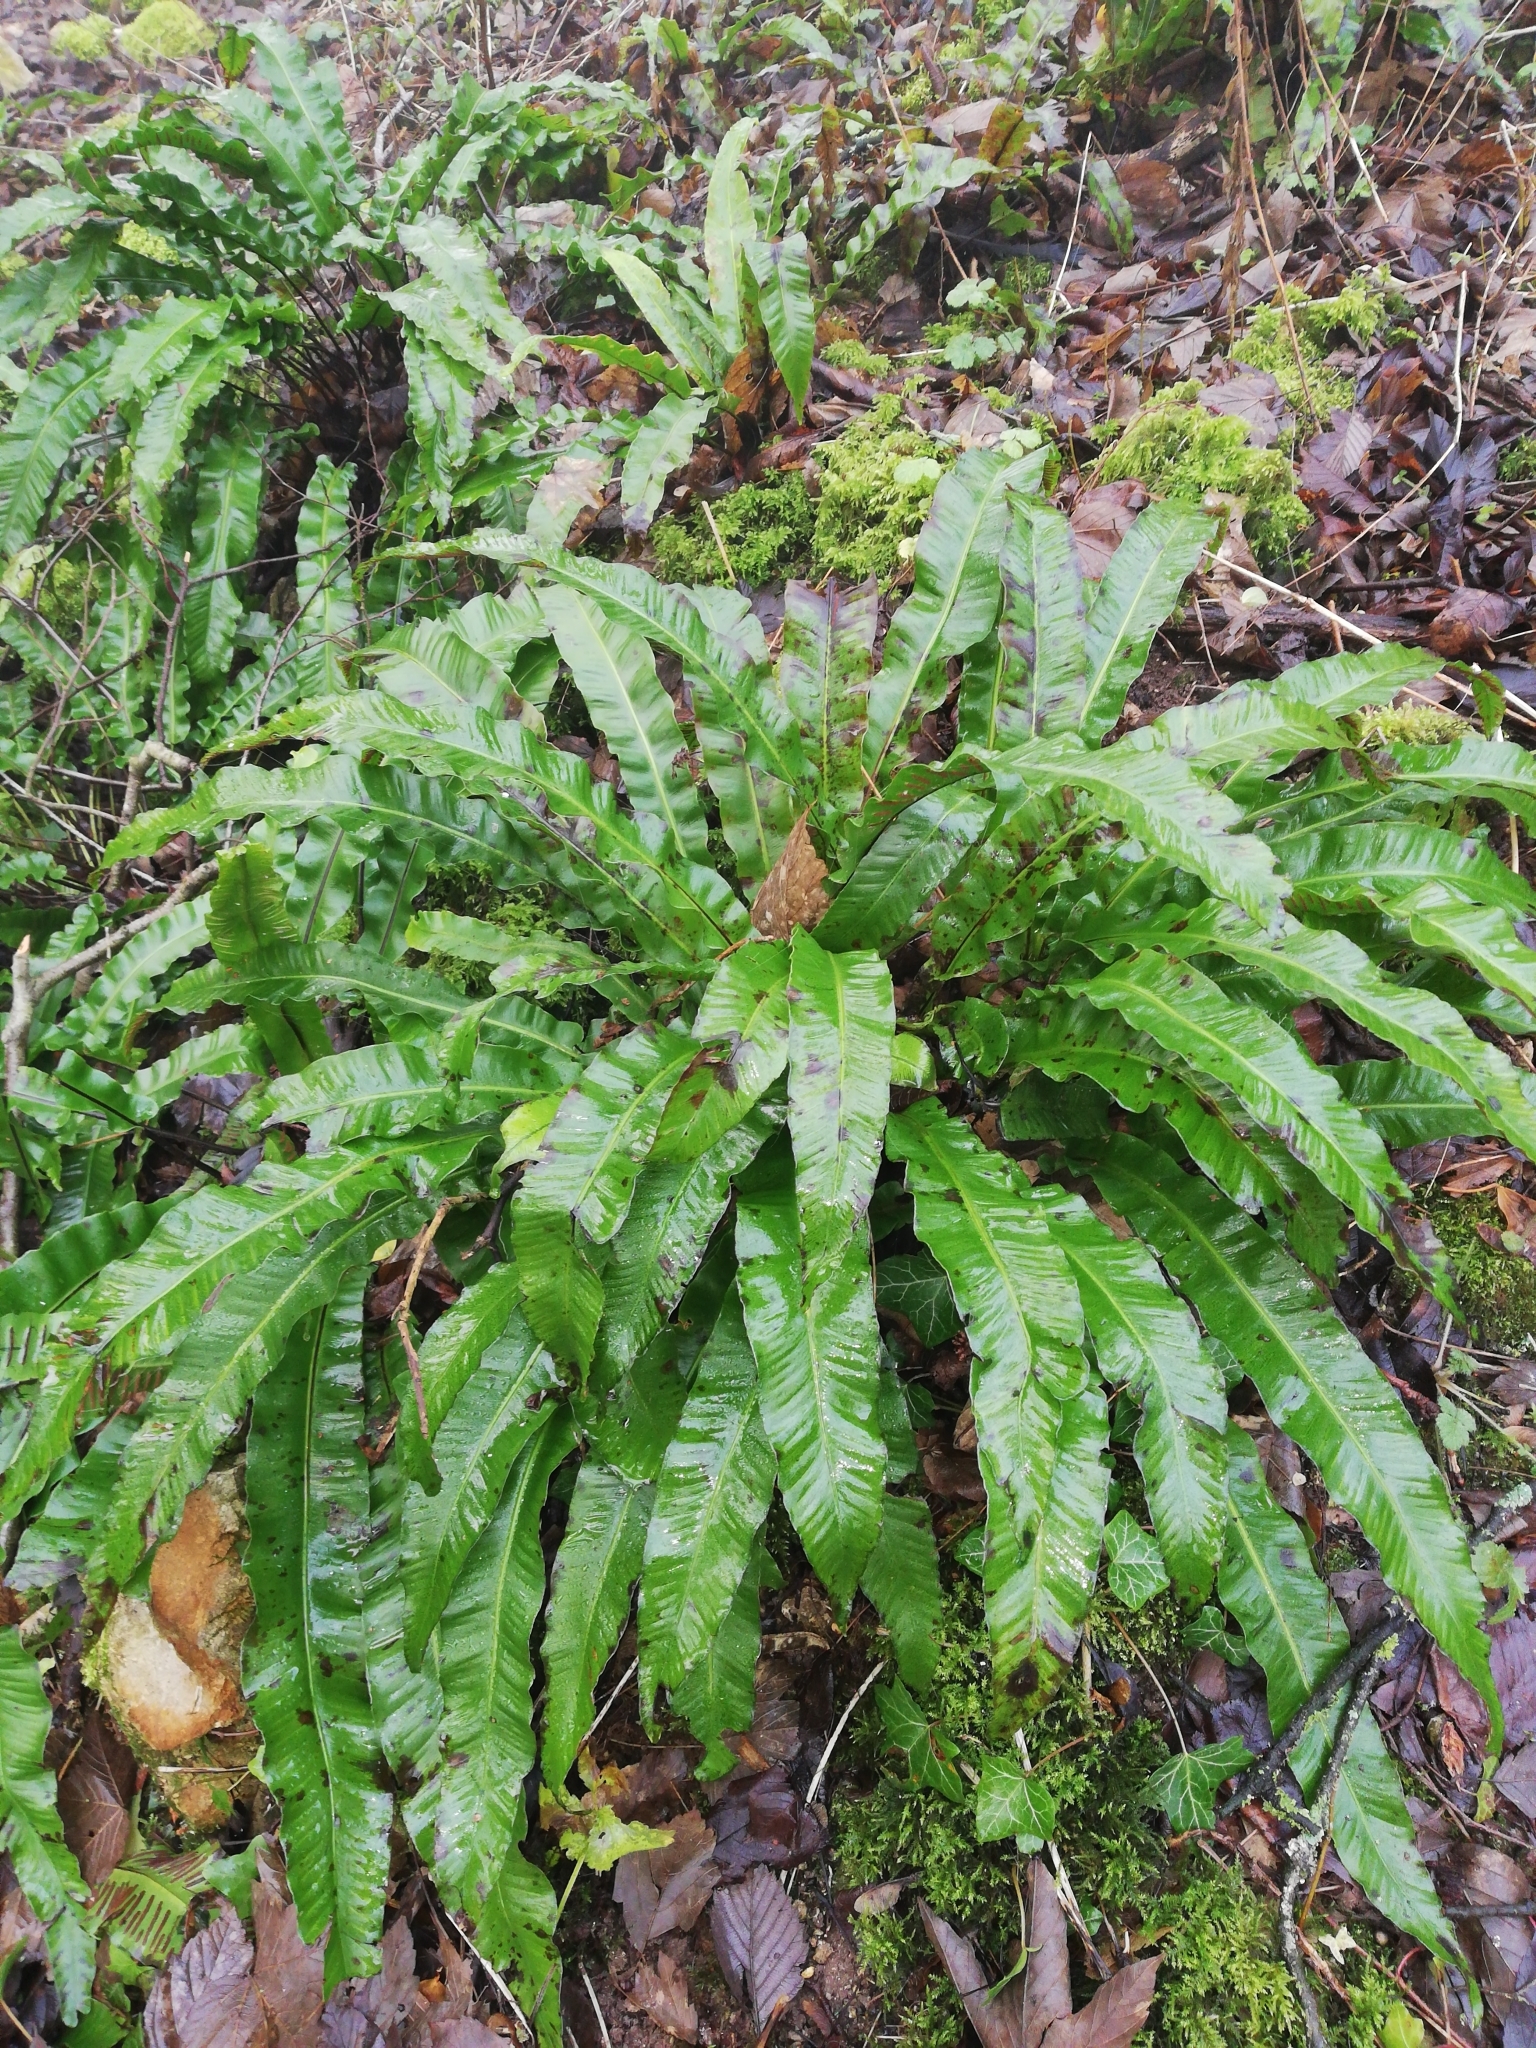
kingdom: Plantae
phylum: Tracheophyta
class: Polypodiopsida
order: Polypodiales
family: Aspleniaceae
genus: Asplenium
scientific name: Asplenium scolopendrium
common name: Hart's-tongue fern
